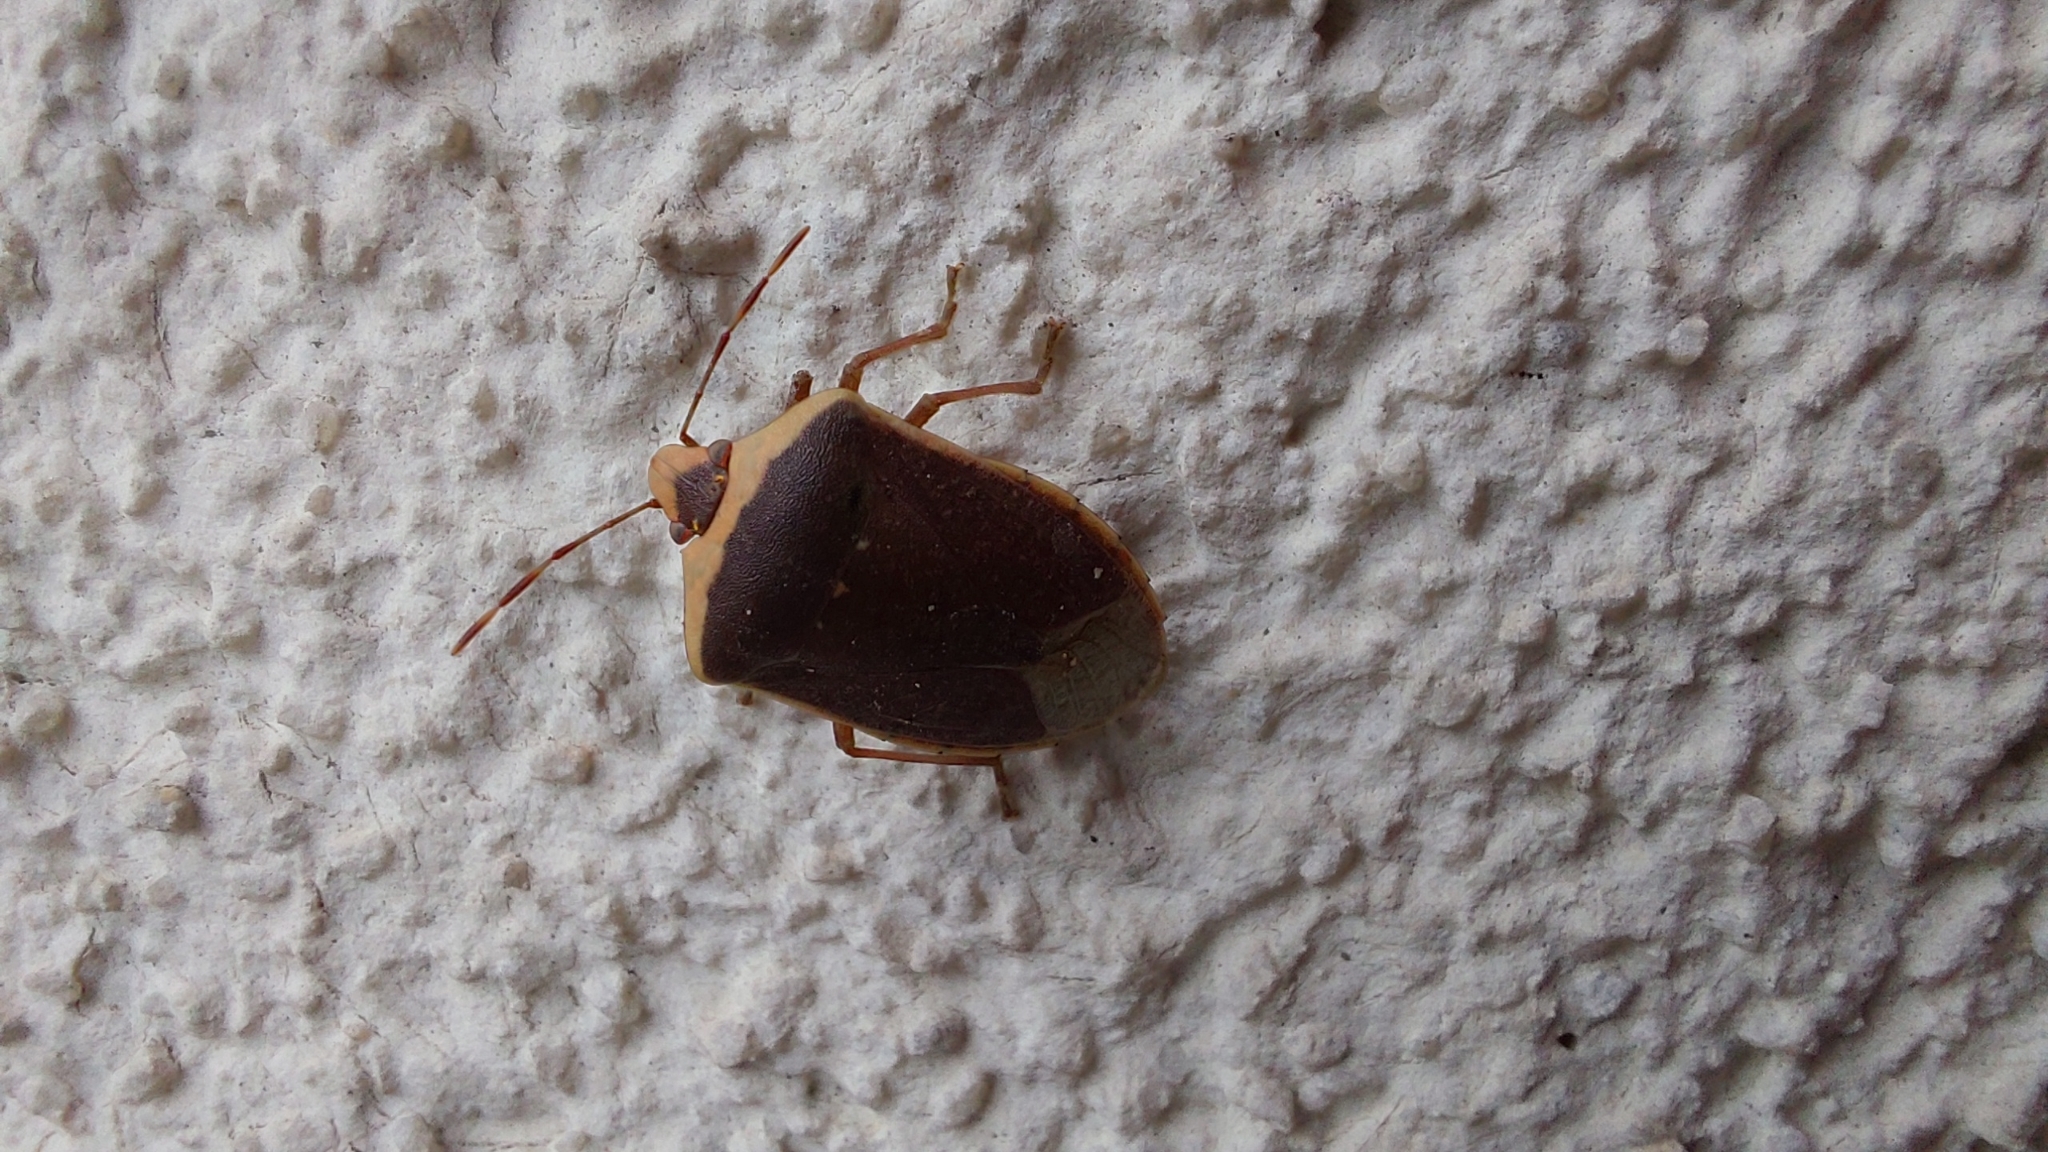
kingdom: Animalia
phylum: Arthropoda
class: Insecta
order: Hemiptera
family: Pentatomidae
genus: Nezara
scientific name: Nezara viridula
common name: Southern green stink bug
